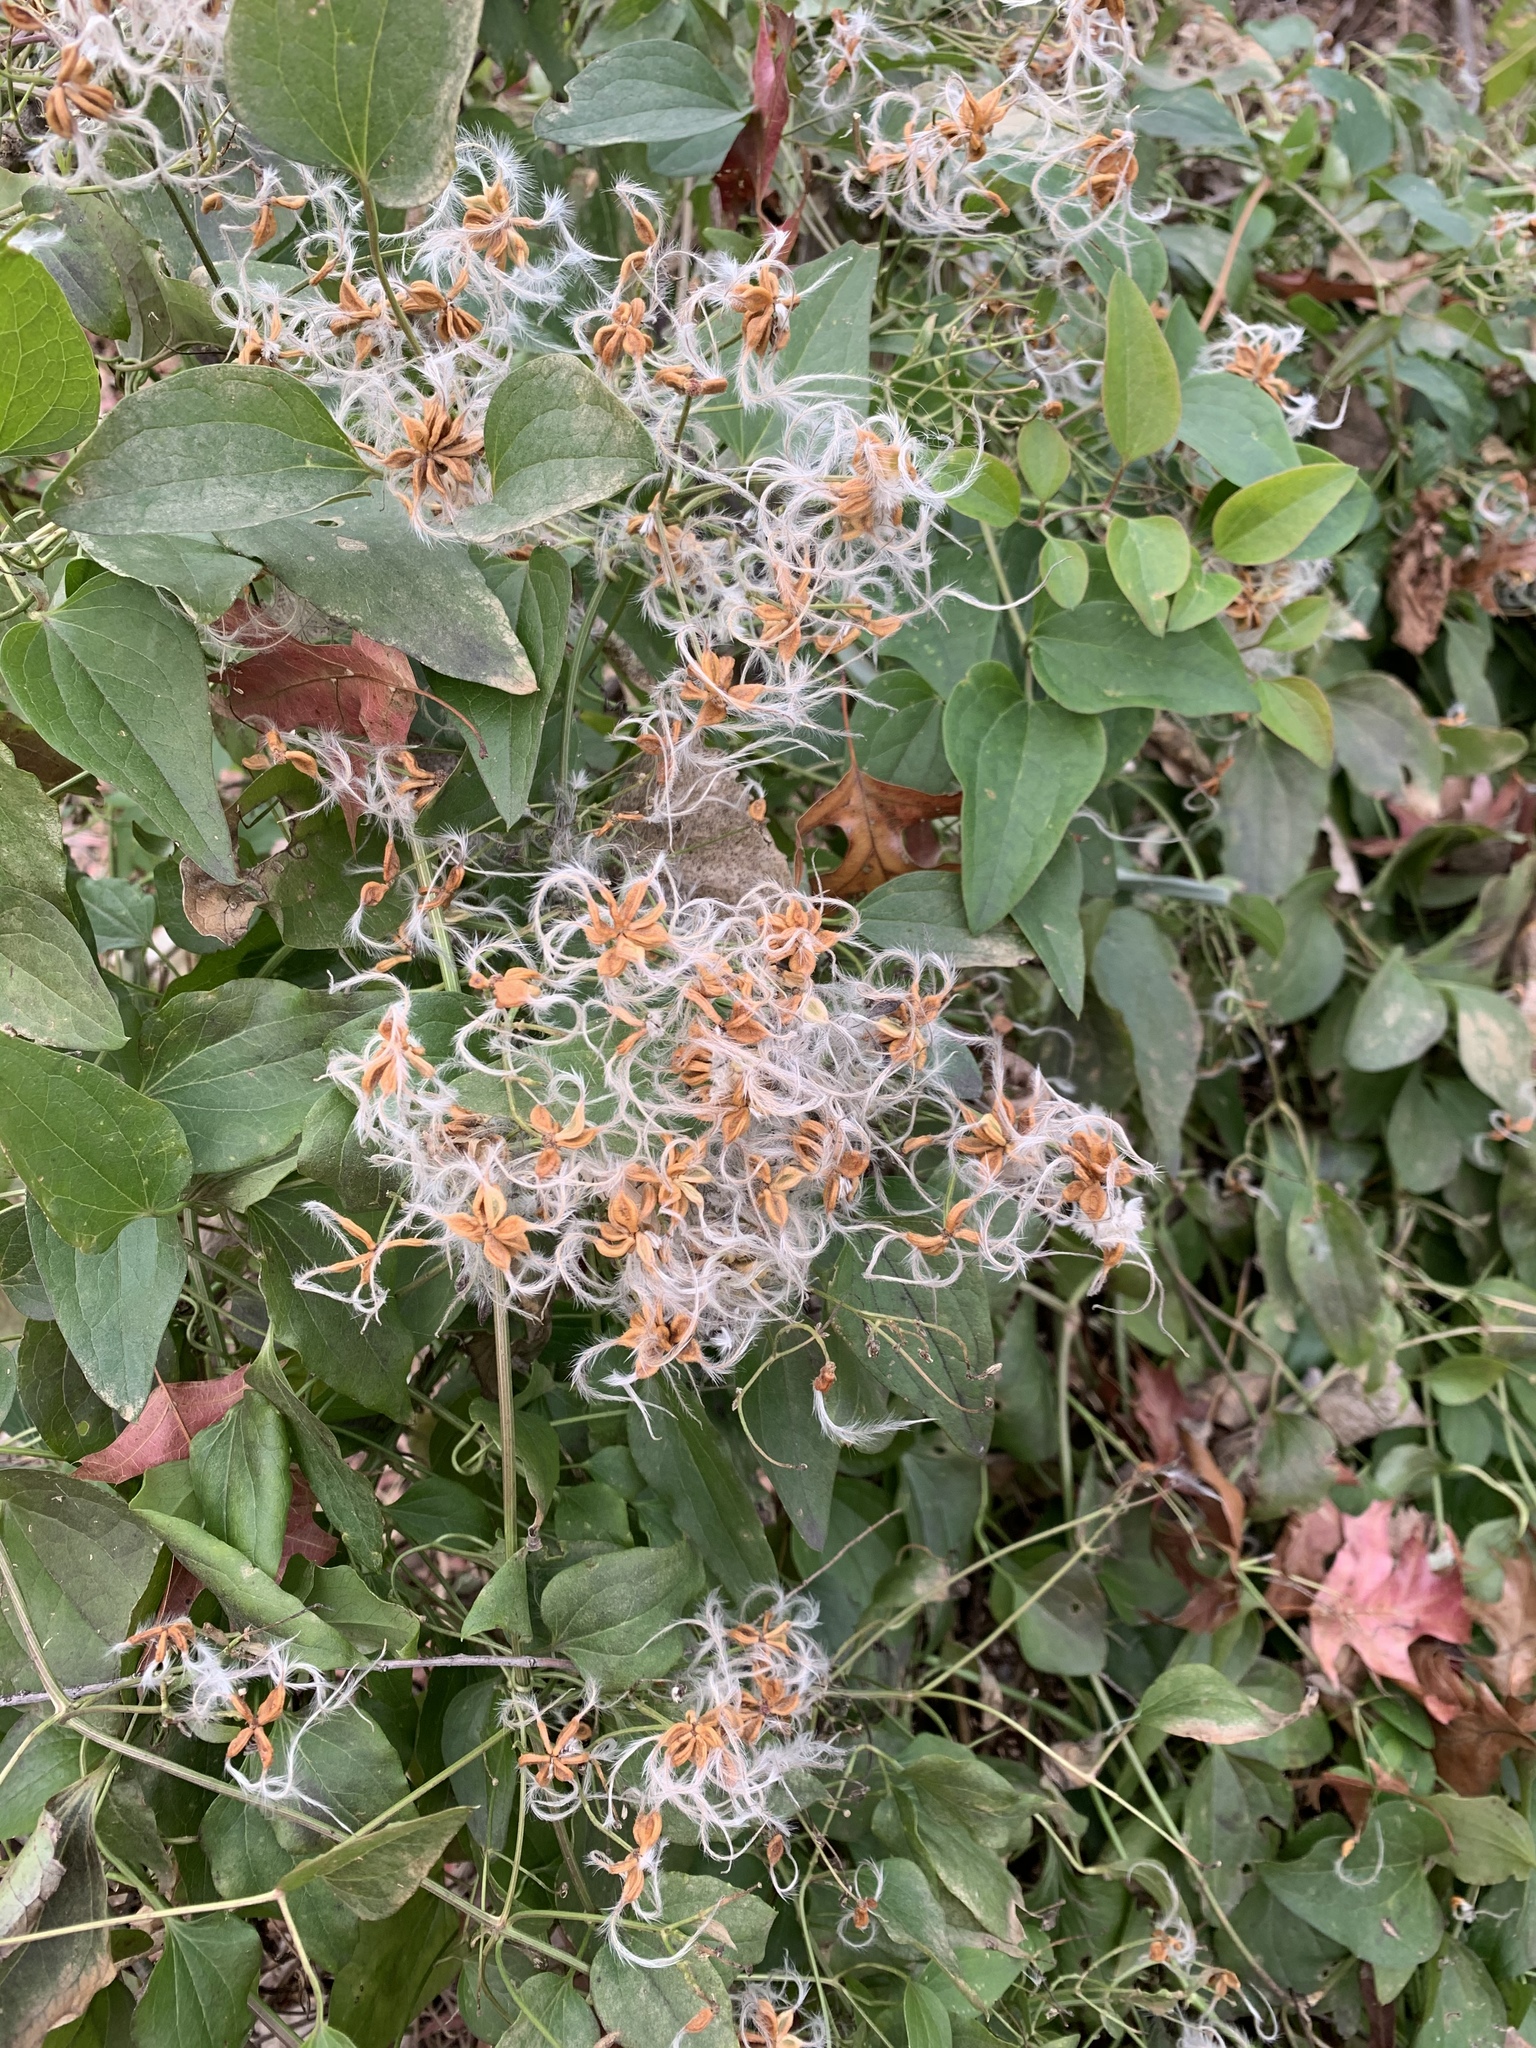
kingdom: Plantae
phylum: Tracheophyta
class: Magnoliopsida
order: Ranunculales
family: Ranunculaceae
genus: Clematis
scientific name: Clematis terniflora
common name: Sweet autumn clematis
